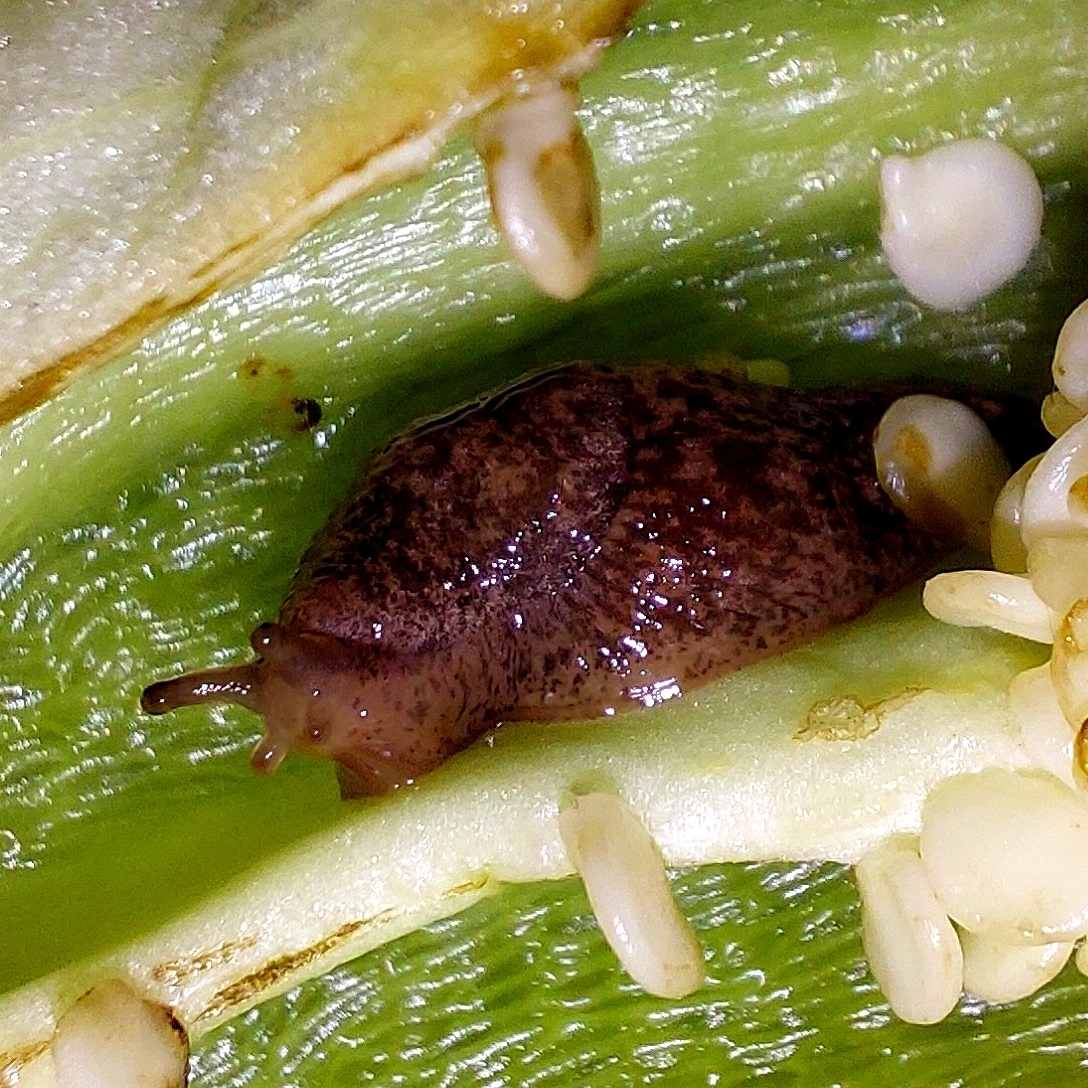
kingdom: Animalia
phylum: Mollusca
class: Gastropoda
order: Stylommatophora
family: Agriolimacidae
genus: Deroceras
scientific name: Deroceras reticulatum
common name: Gray field slug
